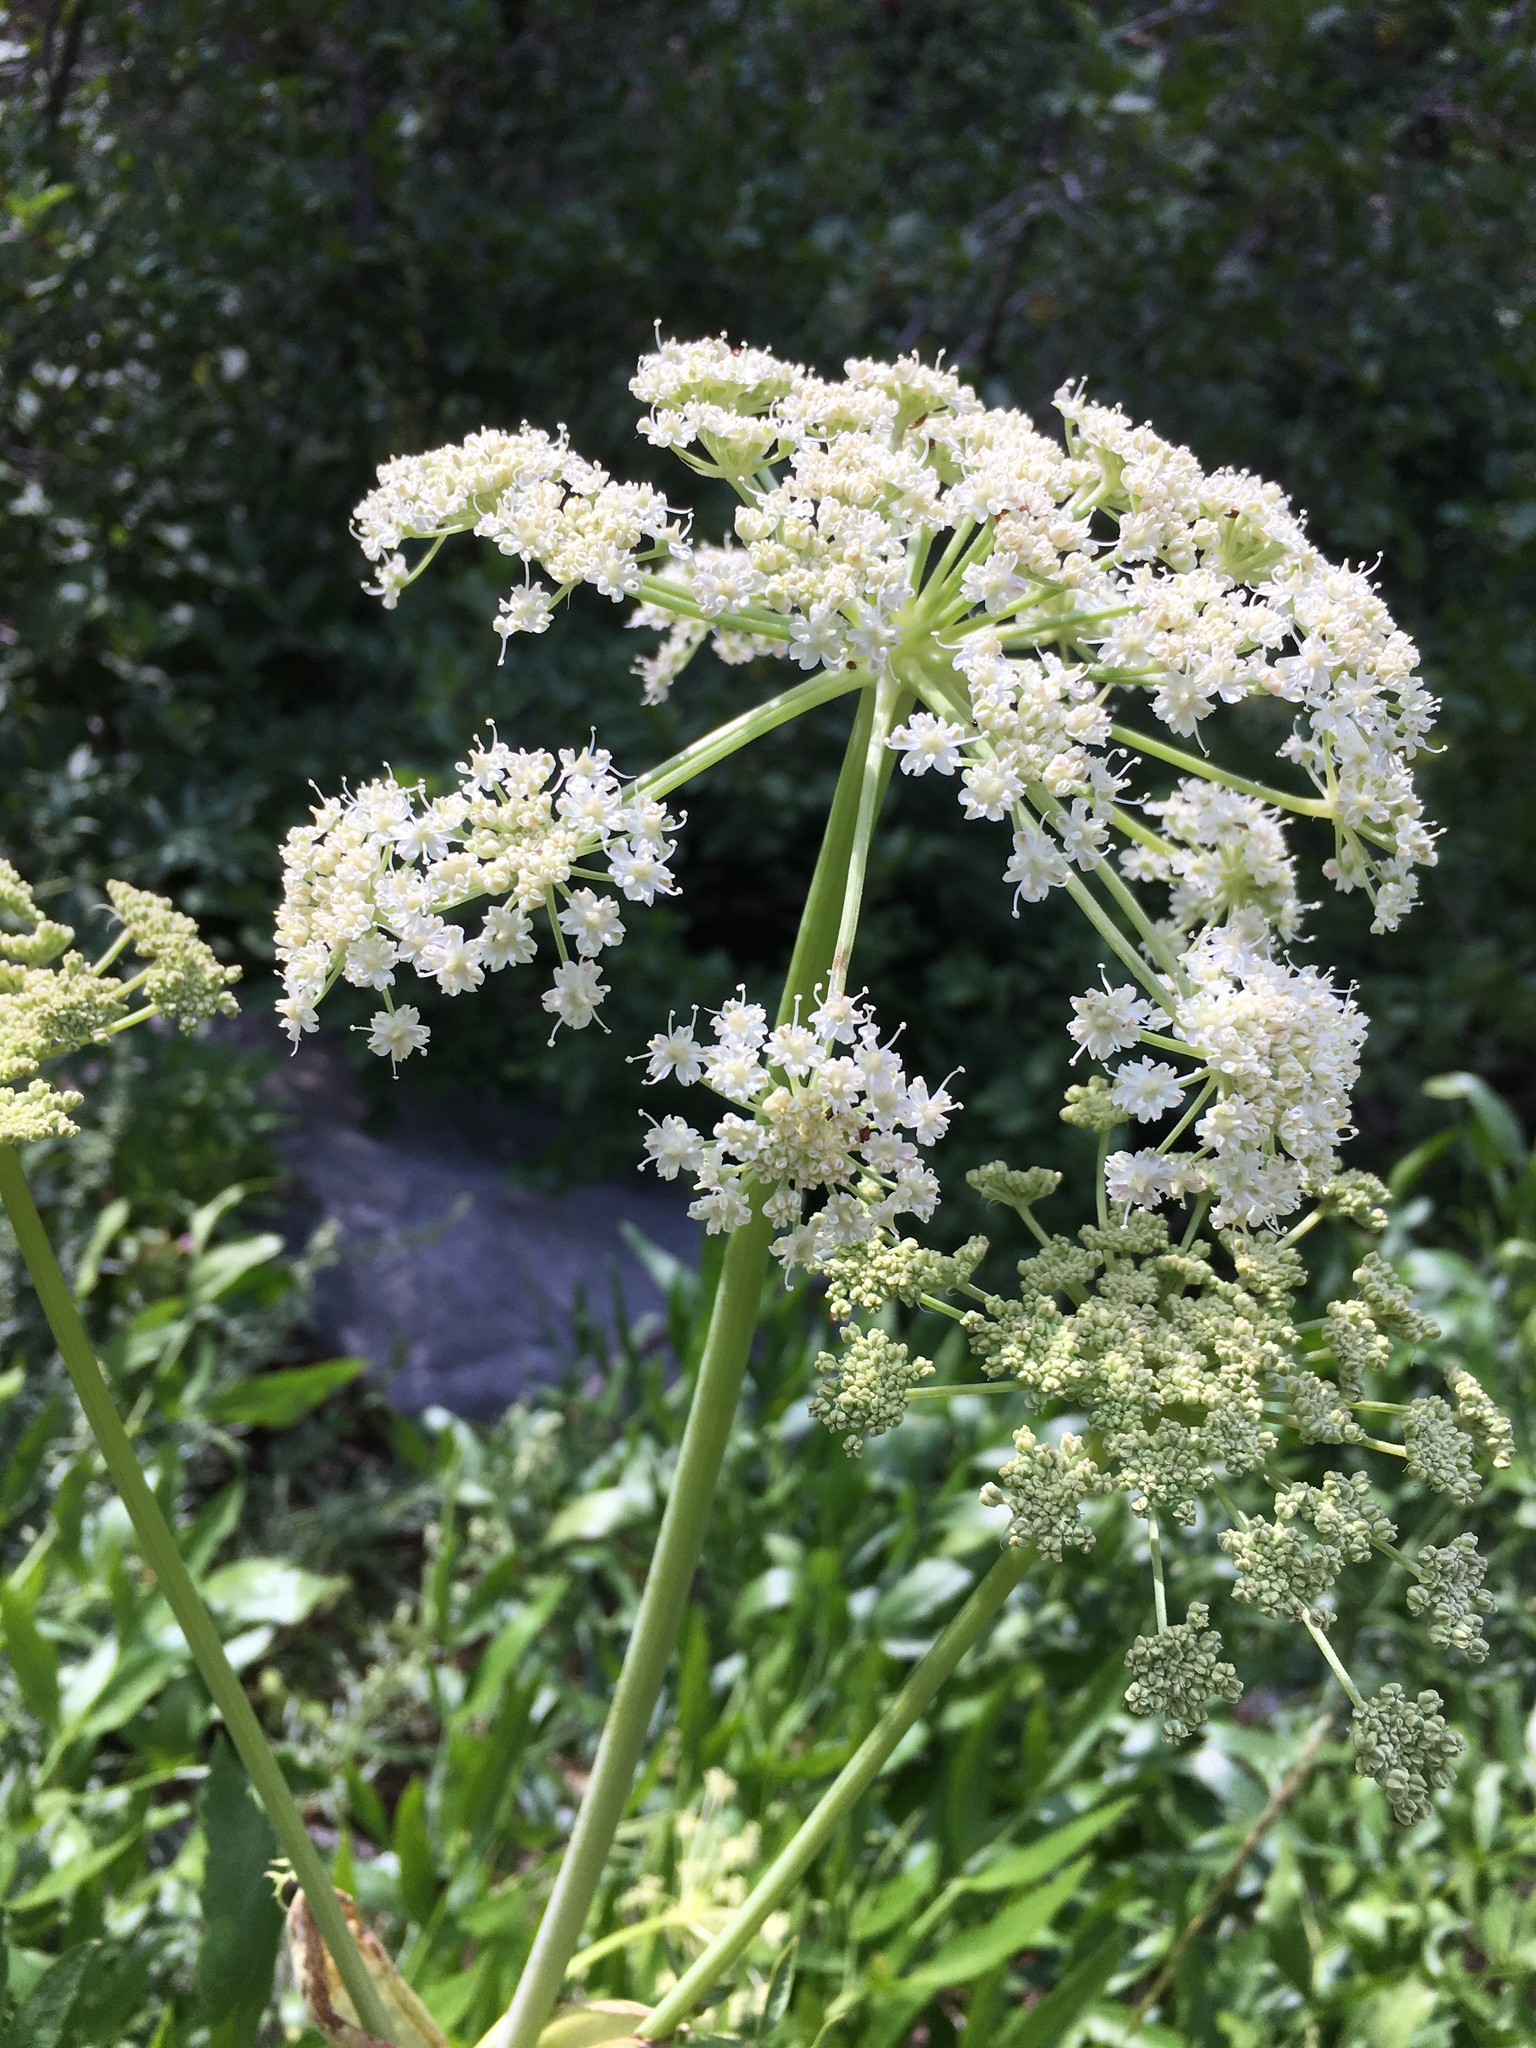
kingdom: Plantae
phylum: Tracheophyta
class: Magnoliopsida
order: Apiales
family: Apiaceae
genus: Angelica
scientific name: Angelica breweri
